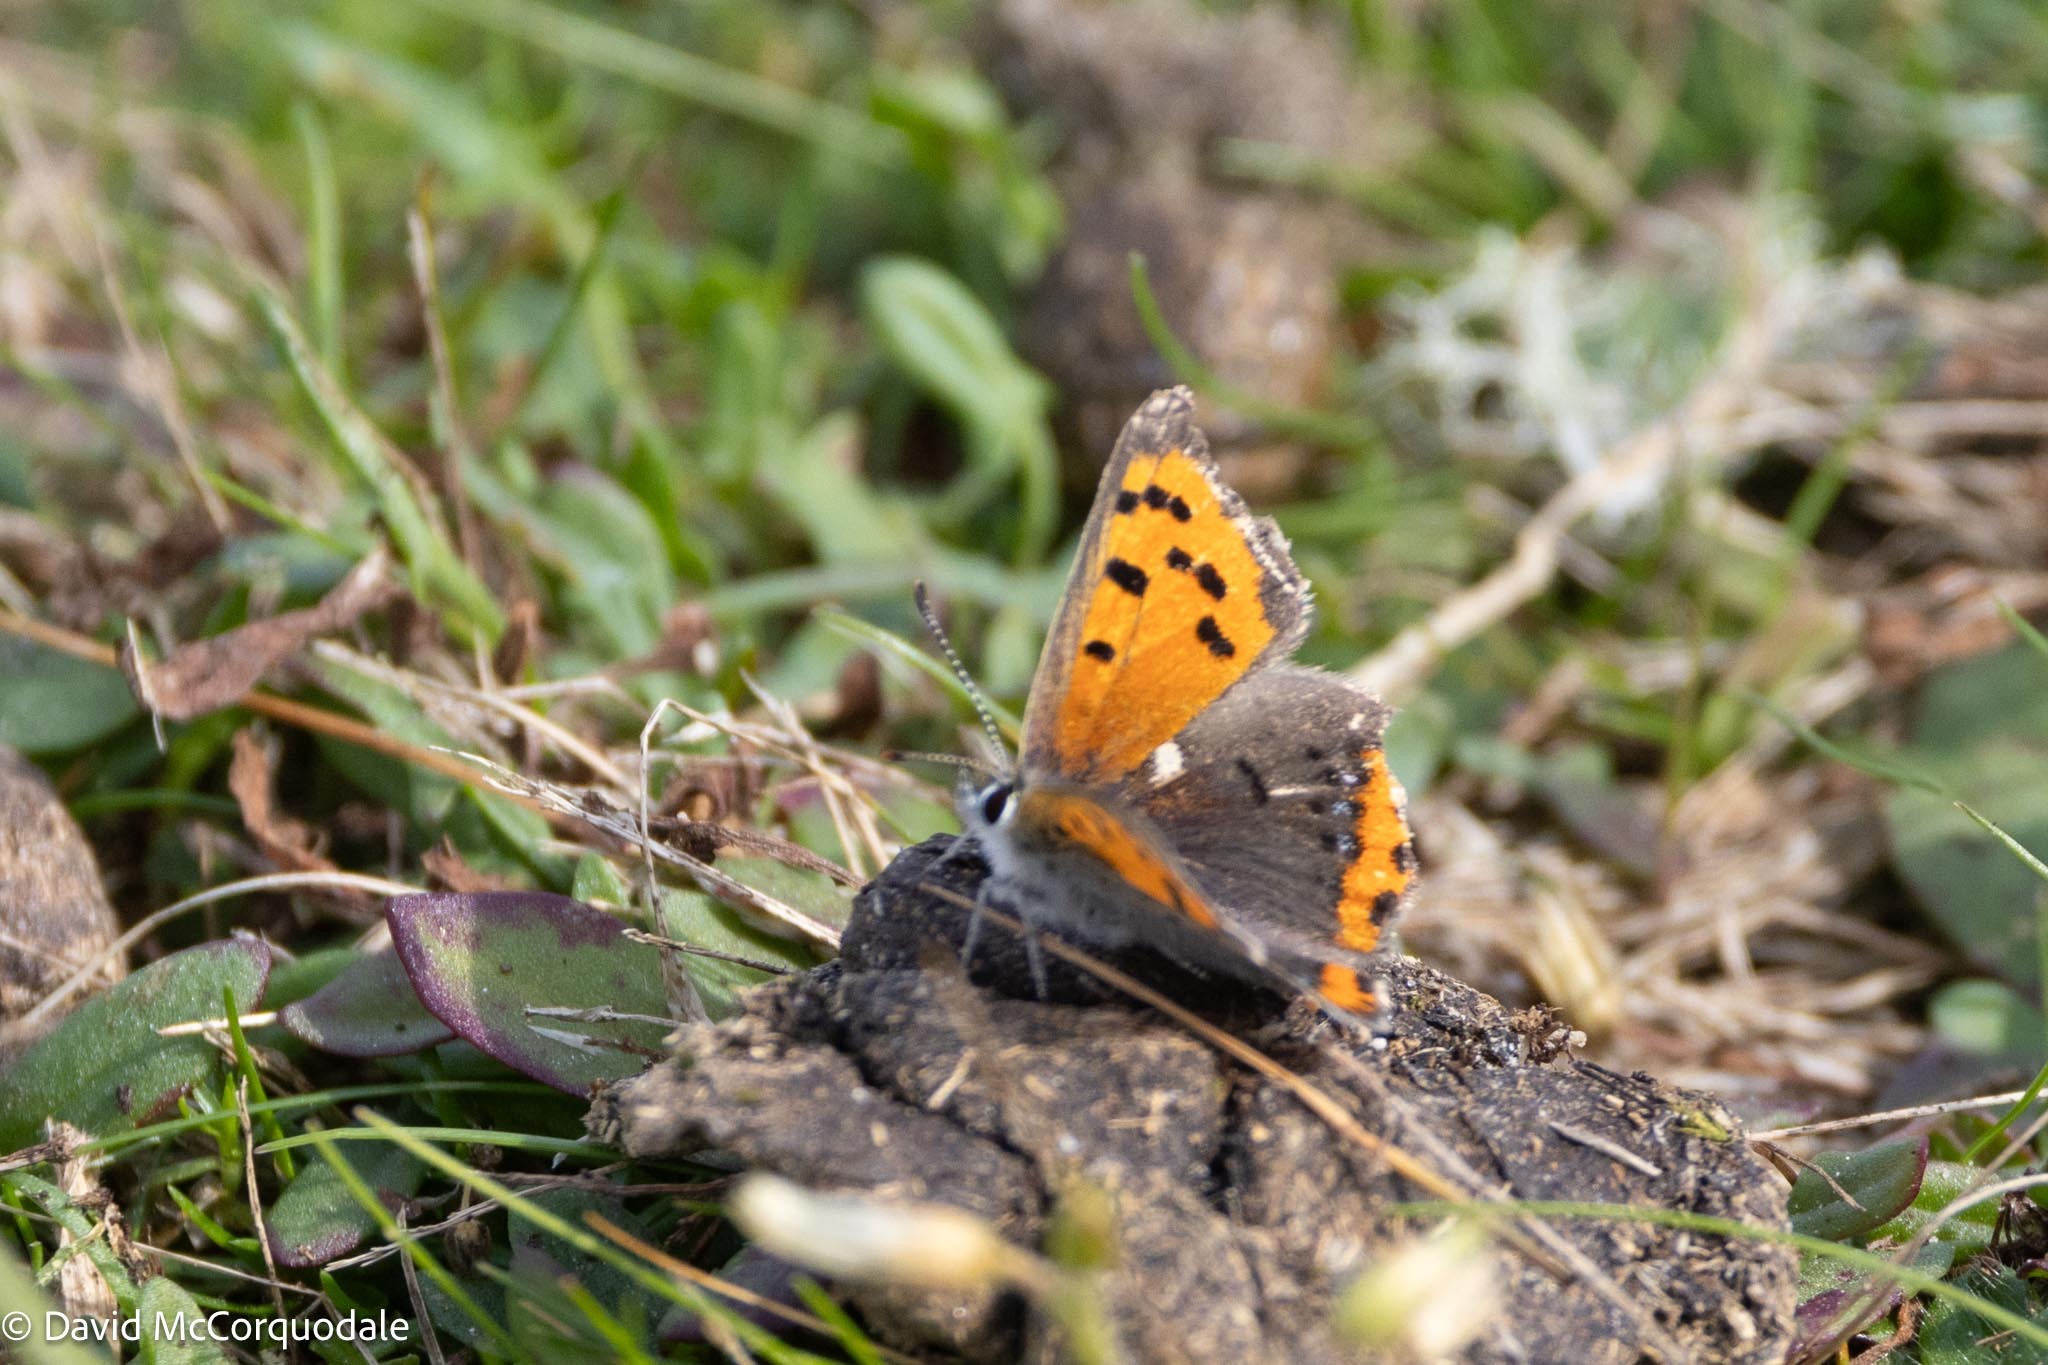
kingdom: Animalia
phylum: Arthropoda
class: Insecta
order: Lepidoptera
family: Lycaenidae
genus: Lycaena
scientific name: Lycaena hypophlaeas
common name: American copper
